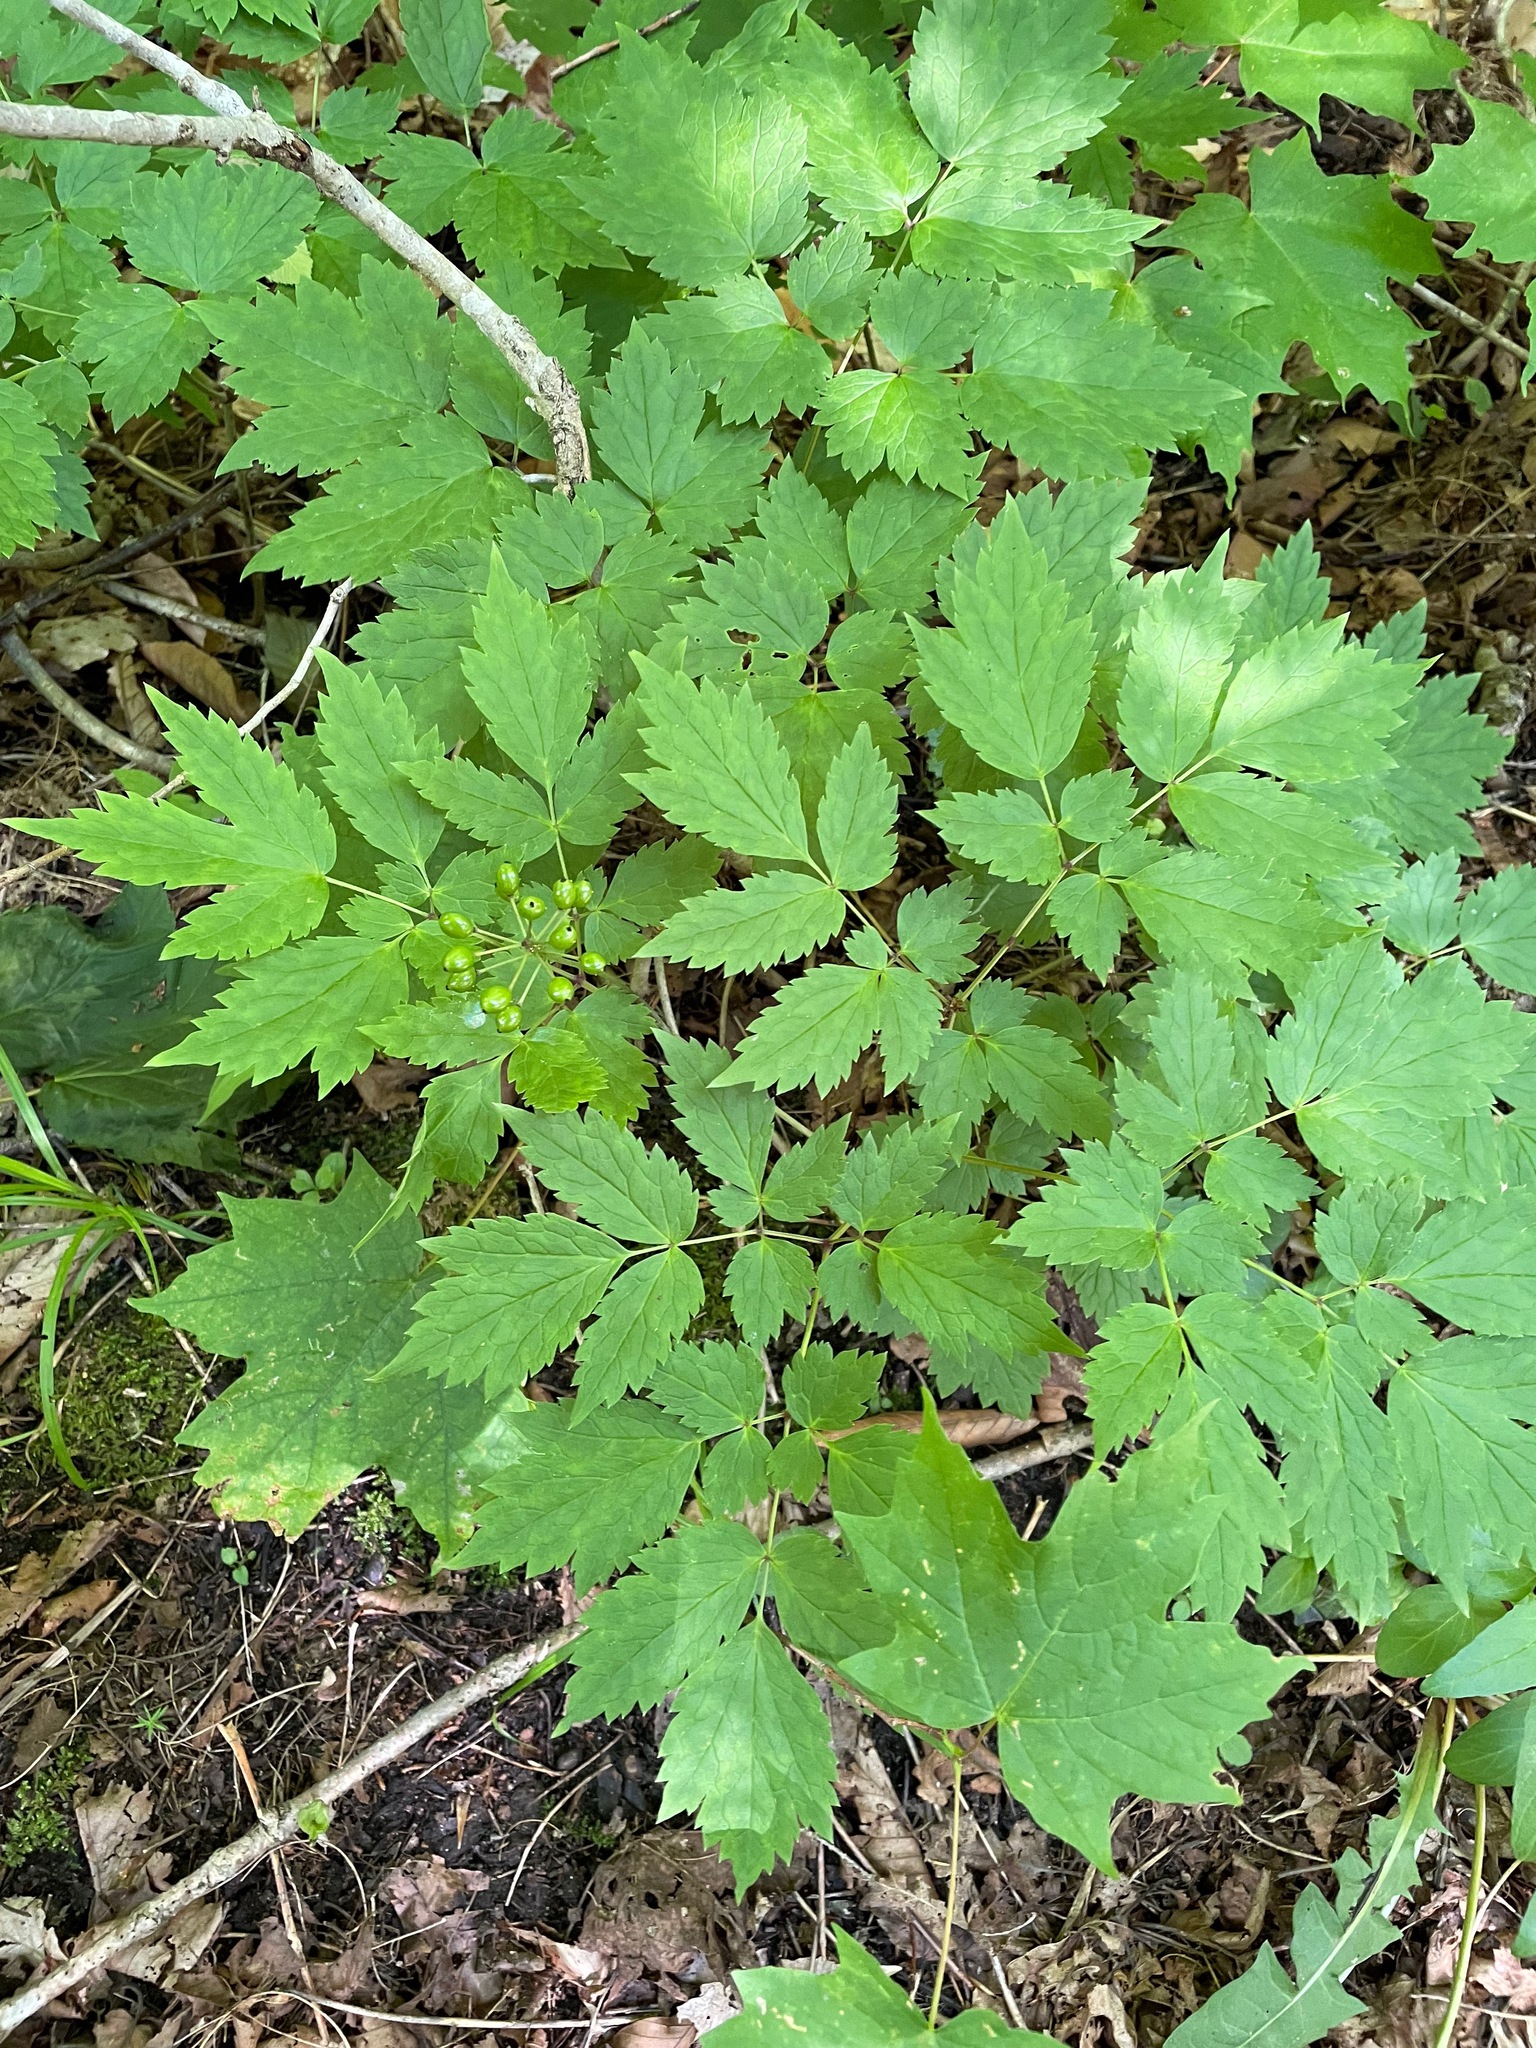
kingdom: Plantae
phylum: Tracheophyta
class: Magnoliopsida
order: Ranunculales
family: Ranunculaceae
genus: Actaea
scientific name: Actaea rubra
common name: Red baneberry
